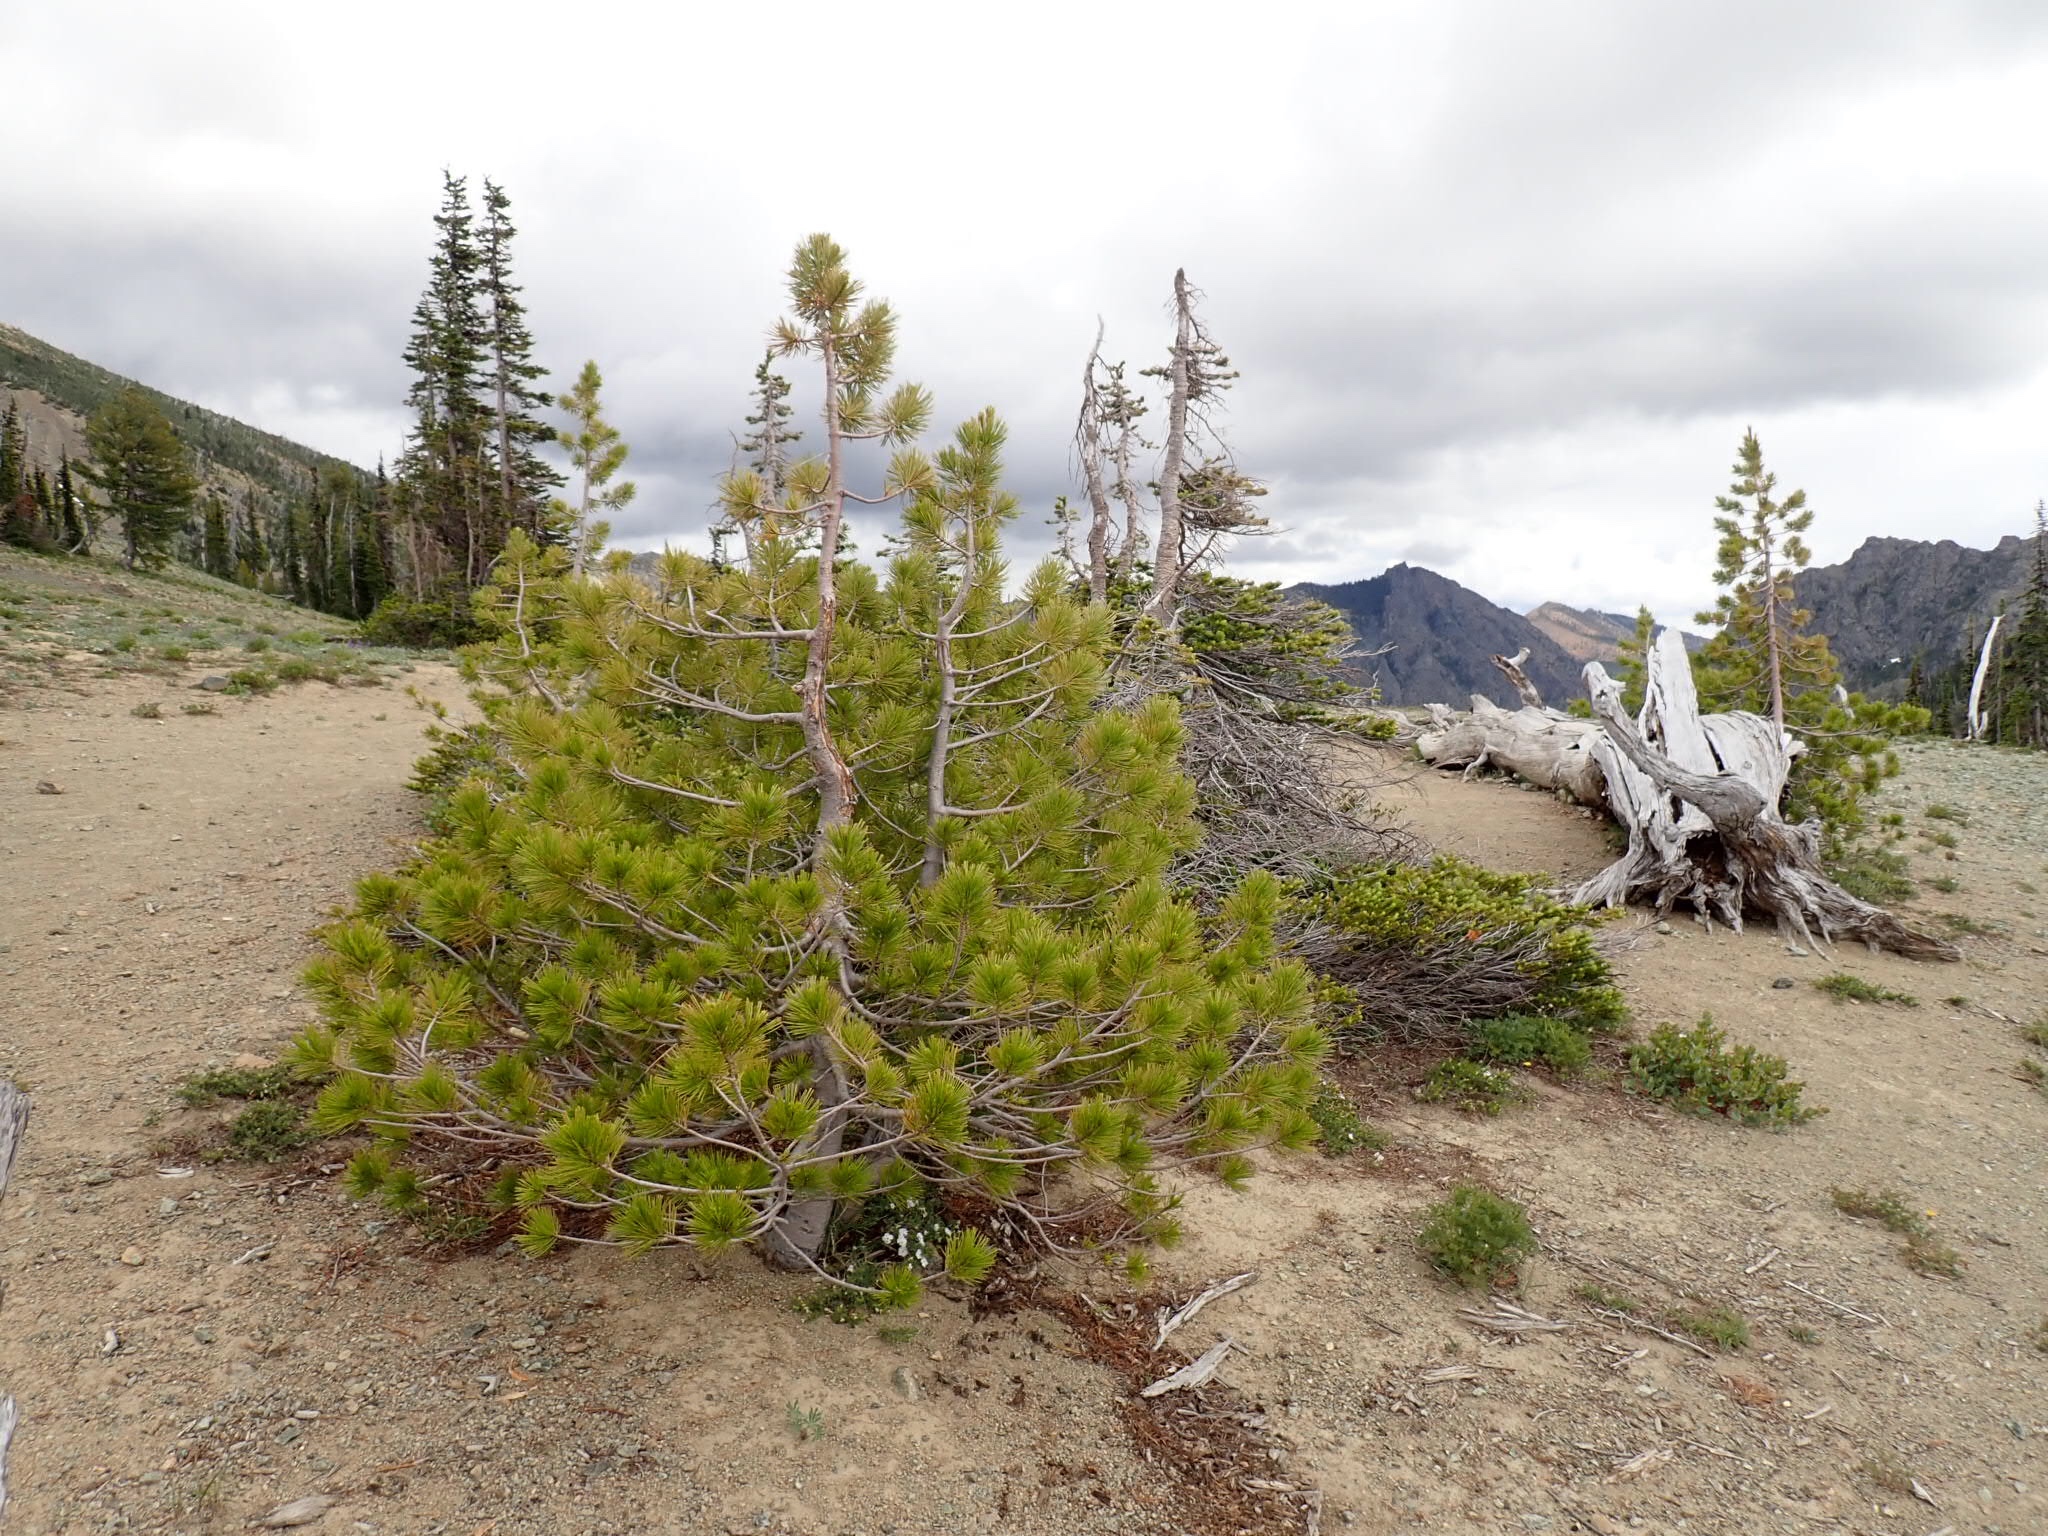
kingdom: Plantae
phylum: Tracheophyta
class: Pinopsida
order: Pinales
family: Pinaceae
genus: Pinus
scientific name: Pinus albicaulis
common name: Whitebark pine
